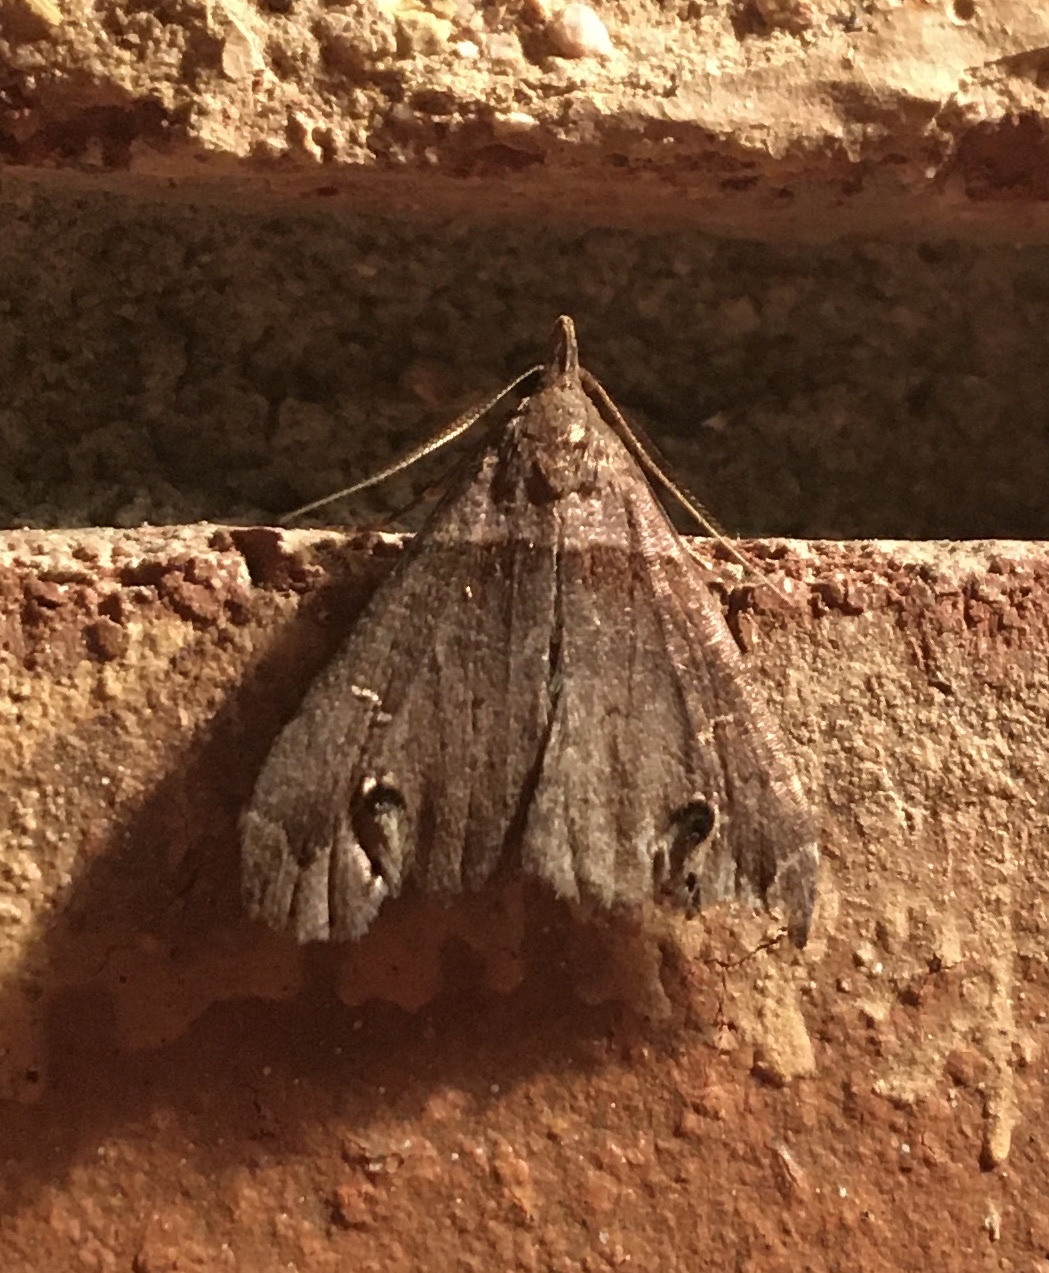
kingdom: Animalia
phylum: Arthropoda
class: Insecta
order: Lepidoptera
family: Erebidae
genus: Lascoria
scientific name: Lascoria ambigualis
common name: Ambiguous moth
